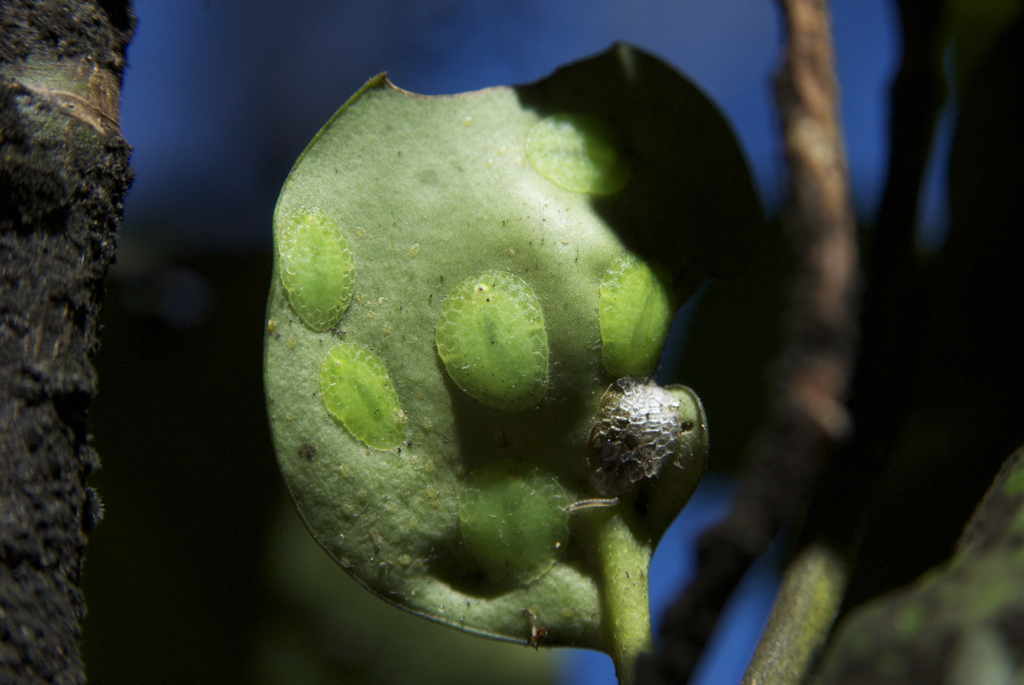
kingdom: Plantae
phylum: Tracheophyta
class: Magnoliopsida
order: Apiales
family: Griseliniaceae
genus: Griselinia
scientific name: Griselinia littoralis
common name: New zealand broadleaf
